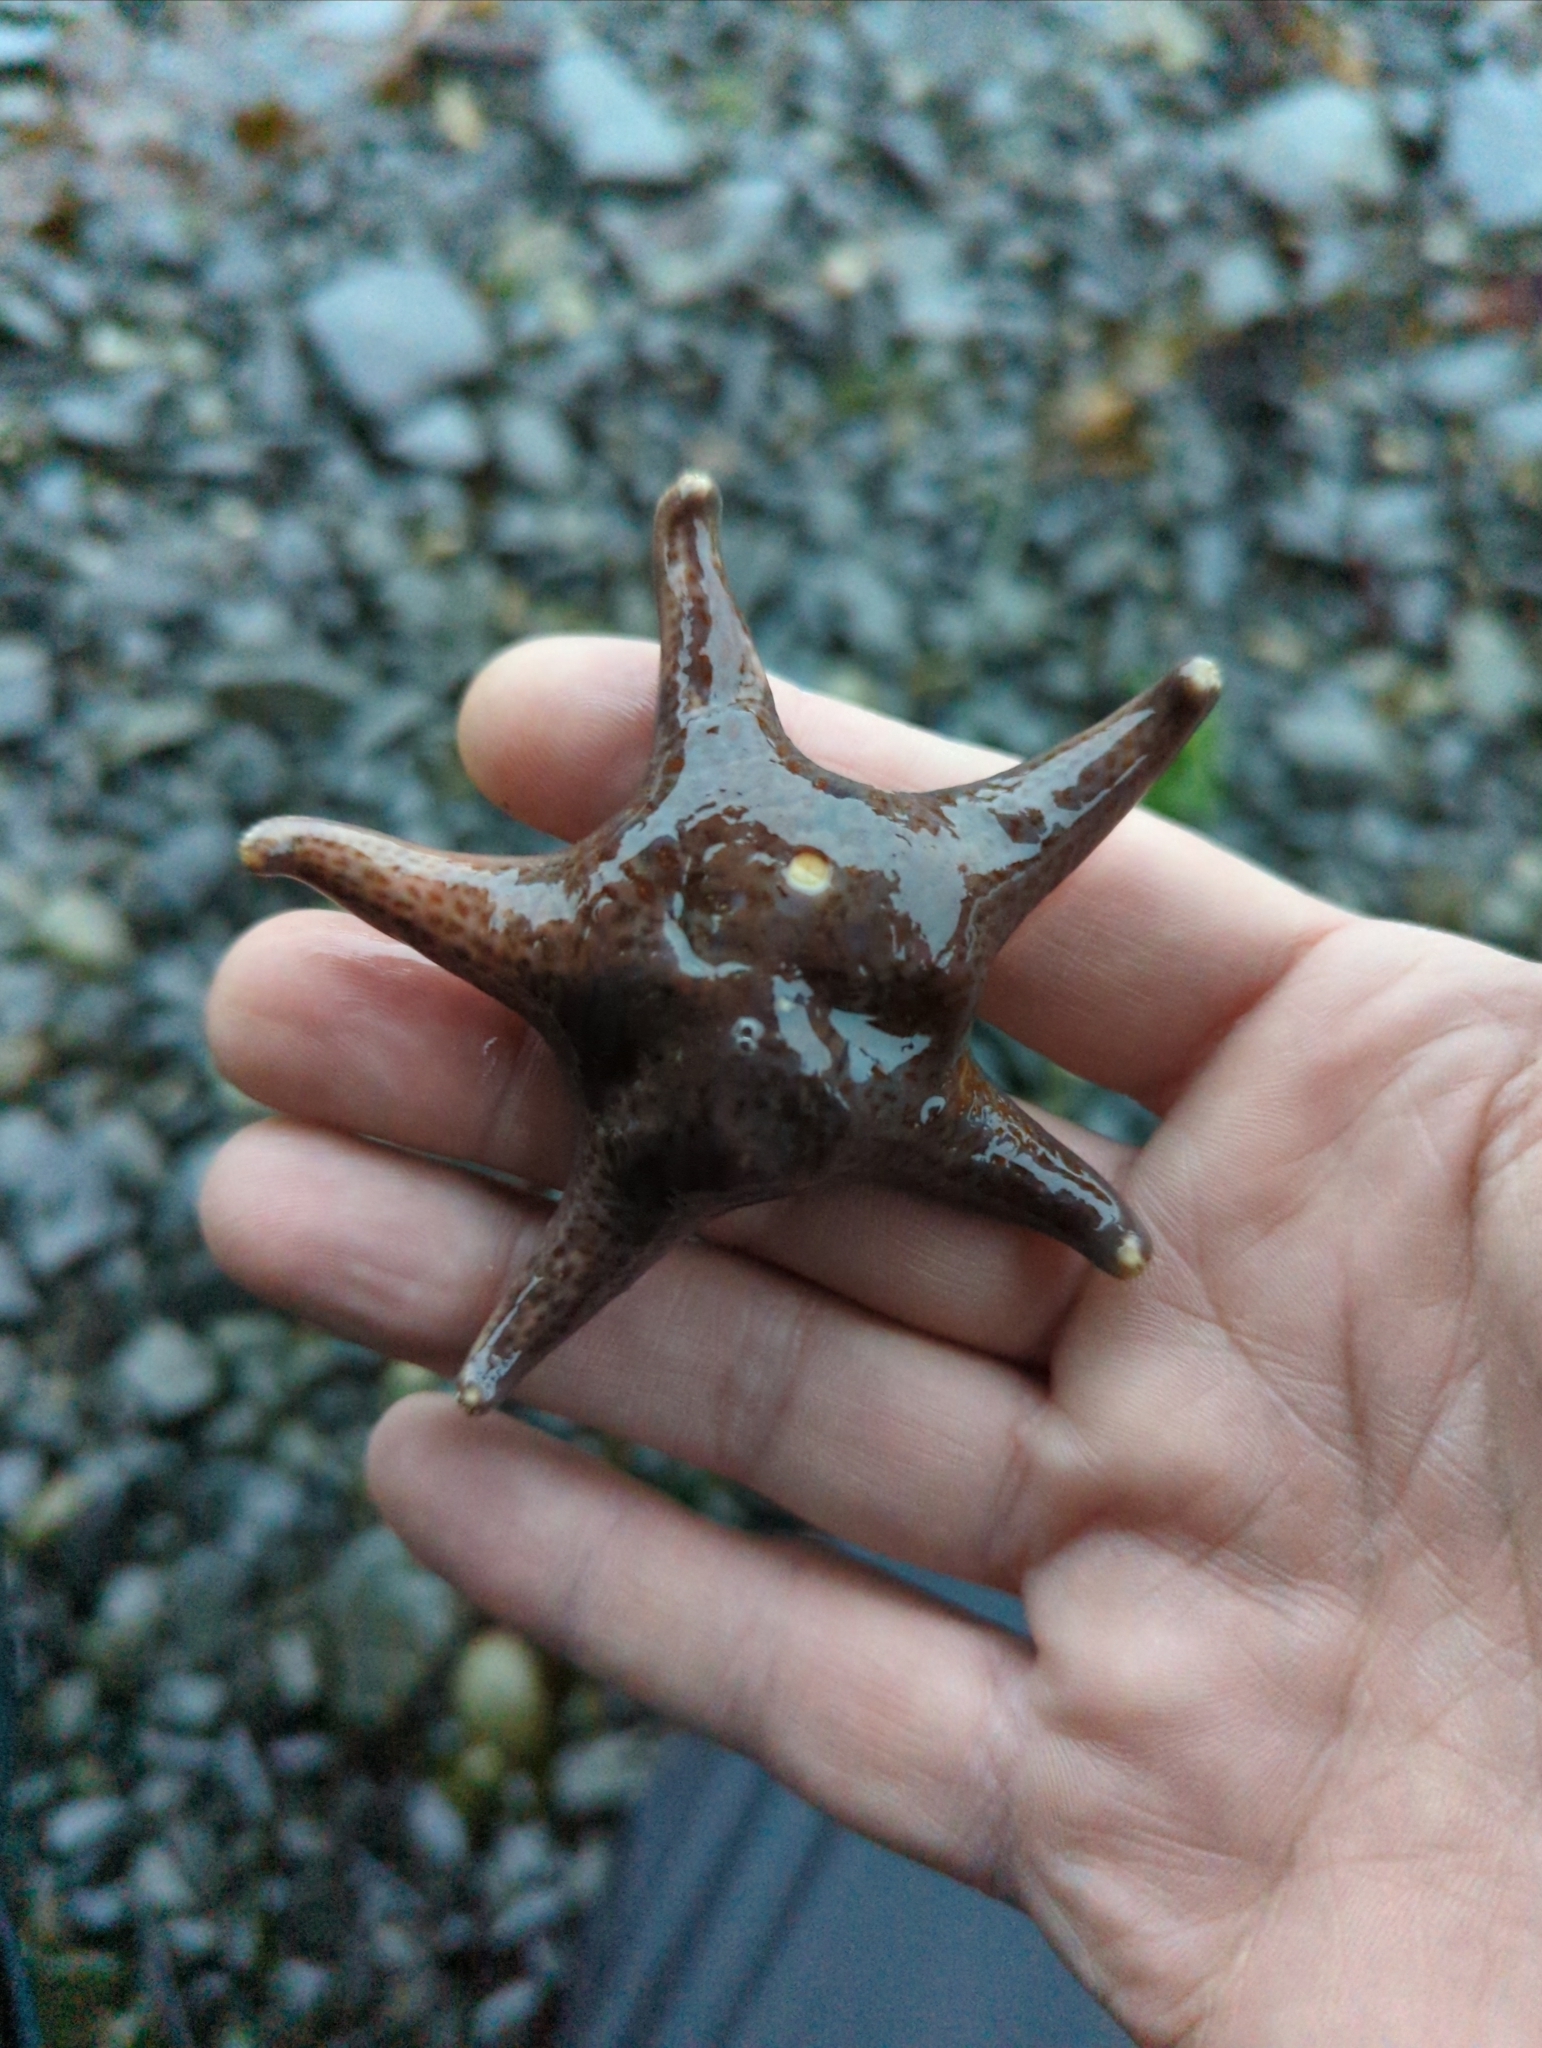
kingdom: Animalia
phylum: Echinodermata
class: Asteroidea
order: Valvatida
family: Asteropseidae
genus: Dermasterias
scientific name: Dermasterias imbricata
